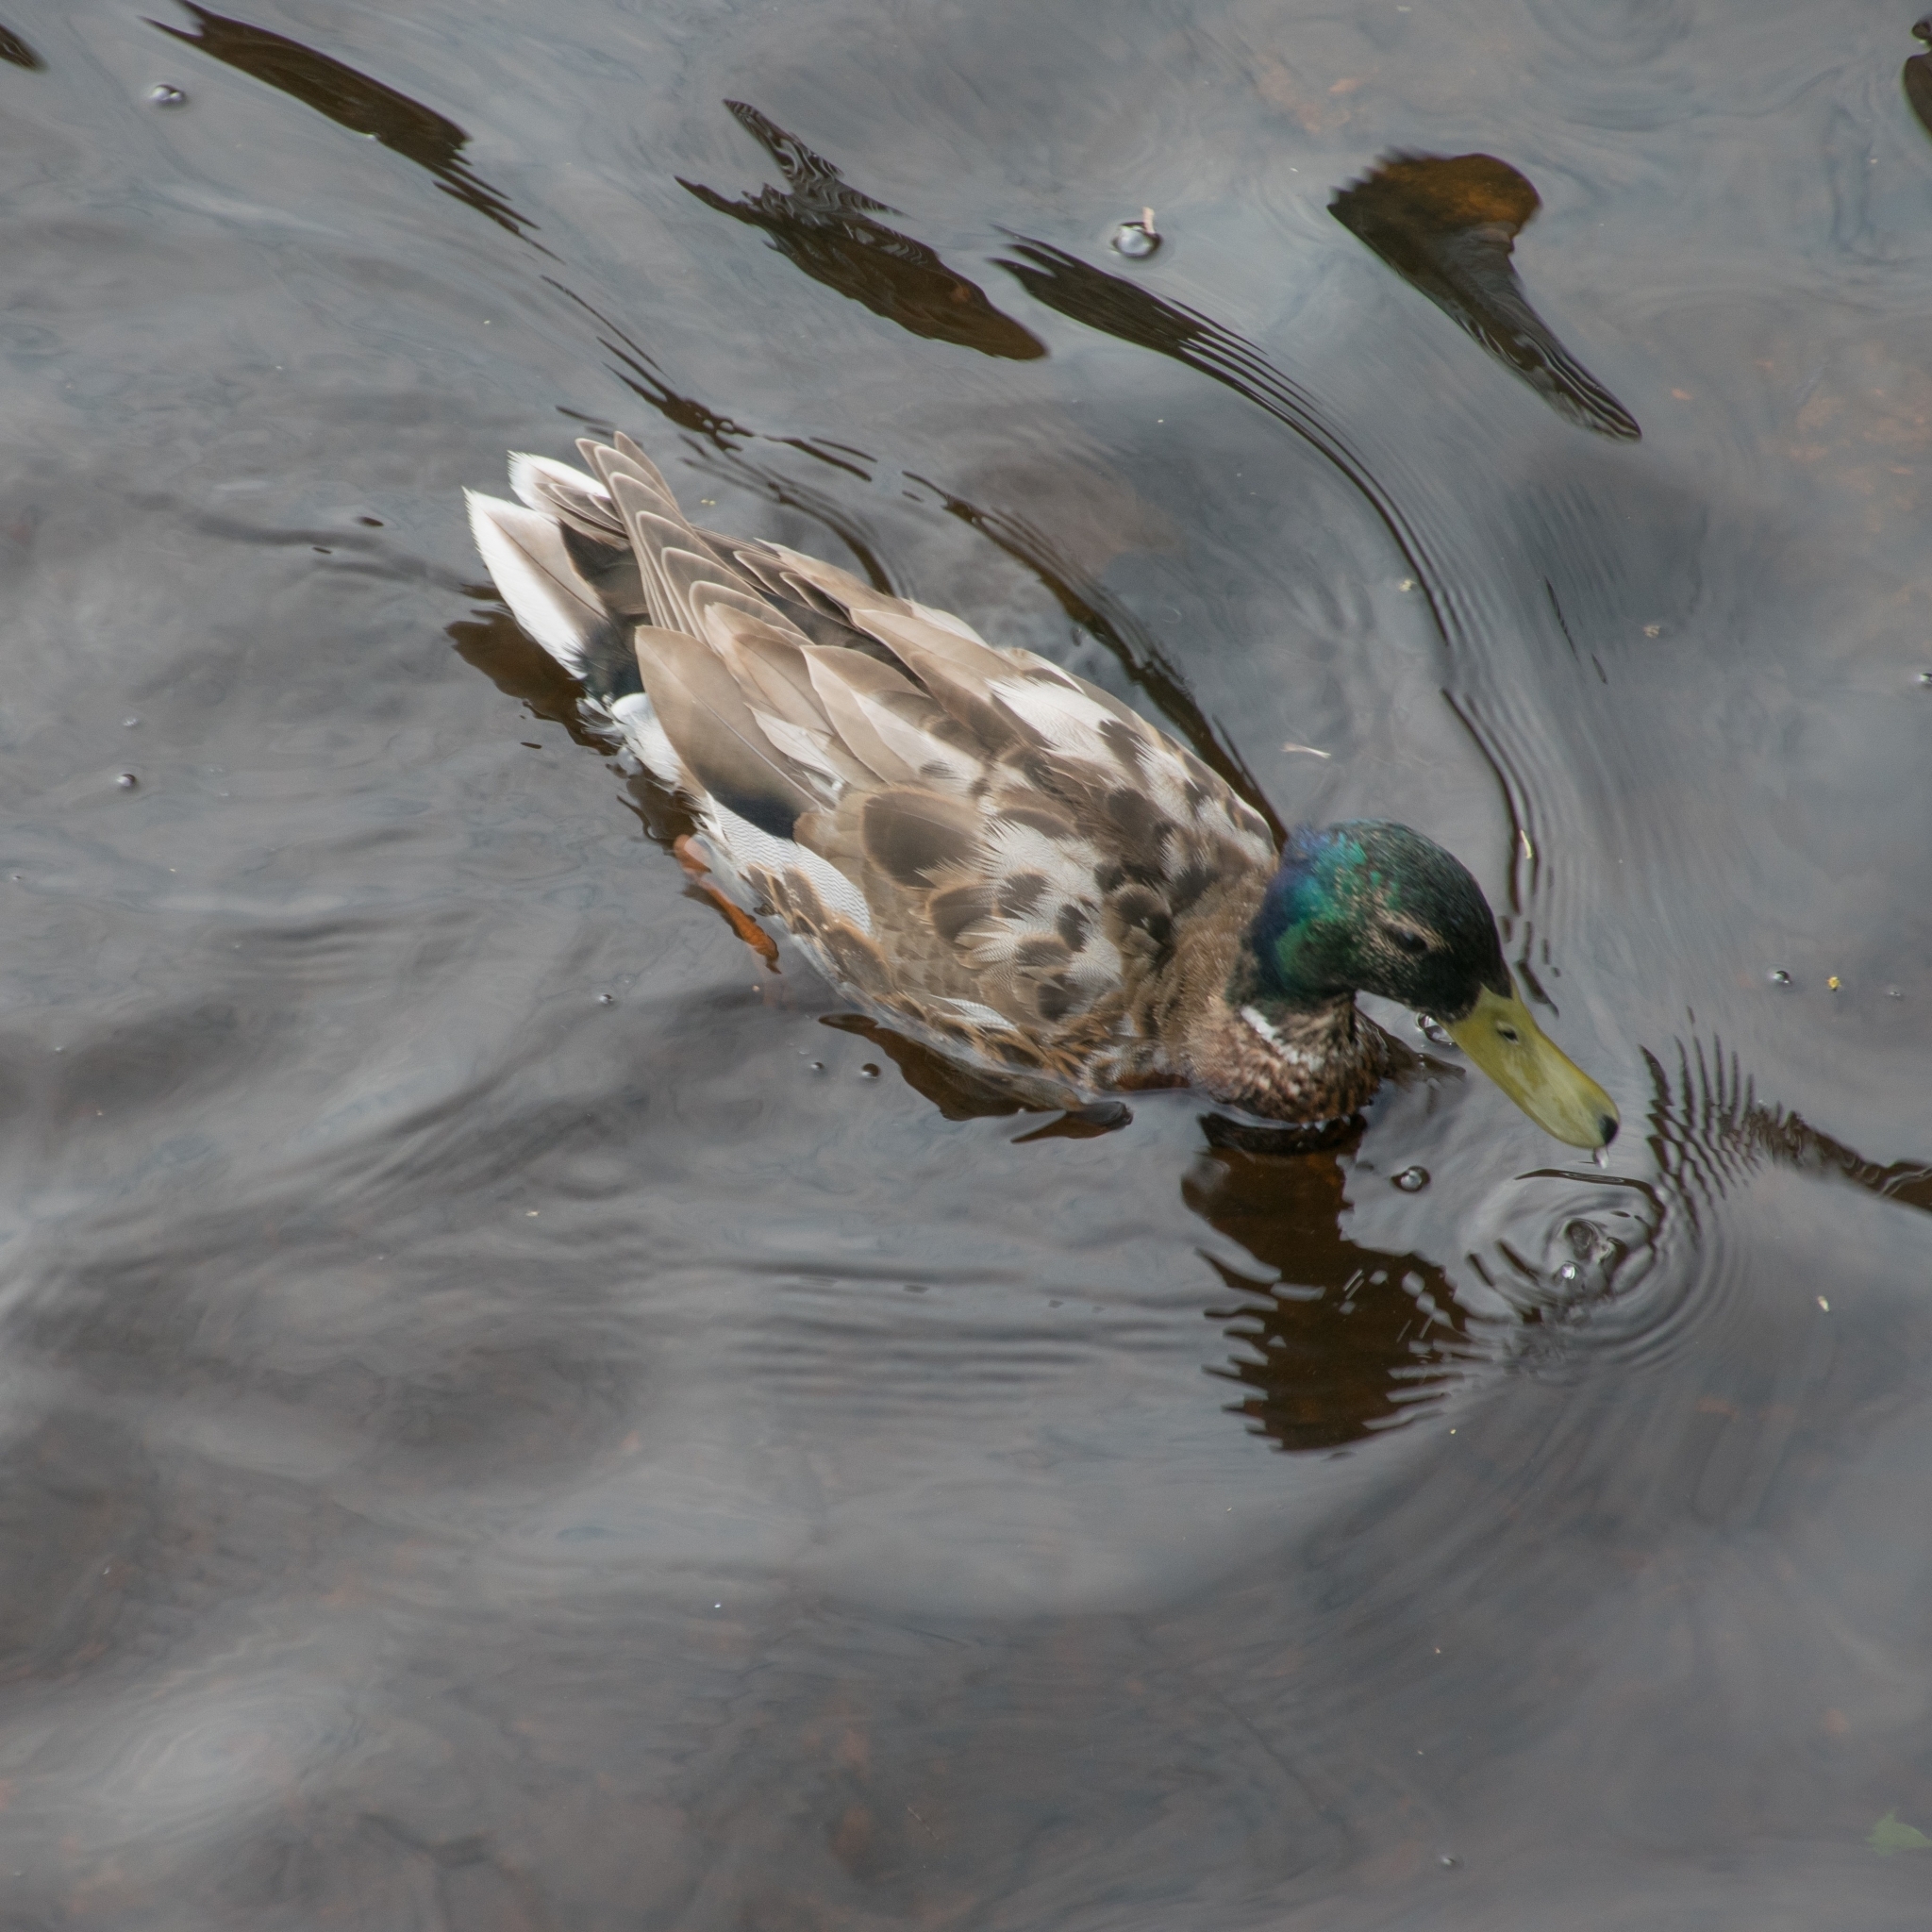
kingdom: Animalia
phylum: Chordata
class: Aves
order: Anseriformes
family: Anatidae
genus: Anas
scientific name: Anas platyrhynchos
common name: Mallard
